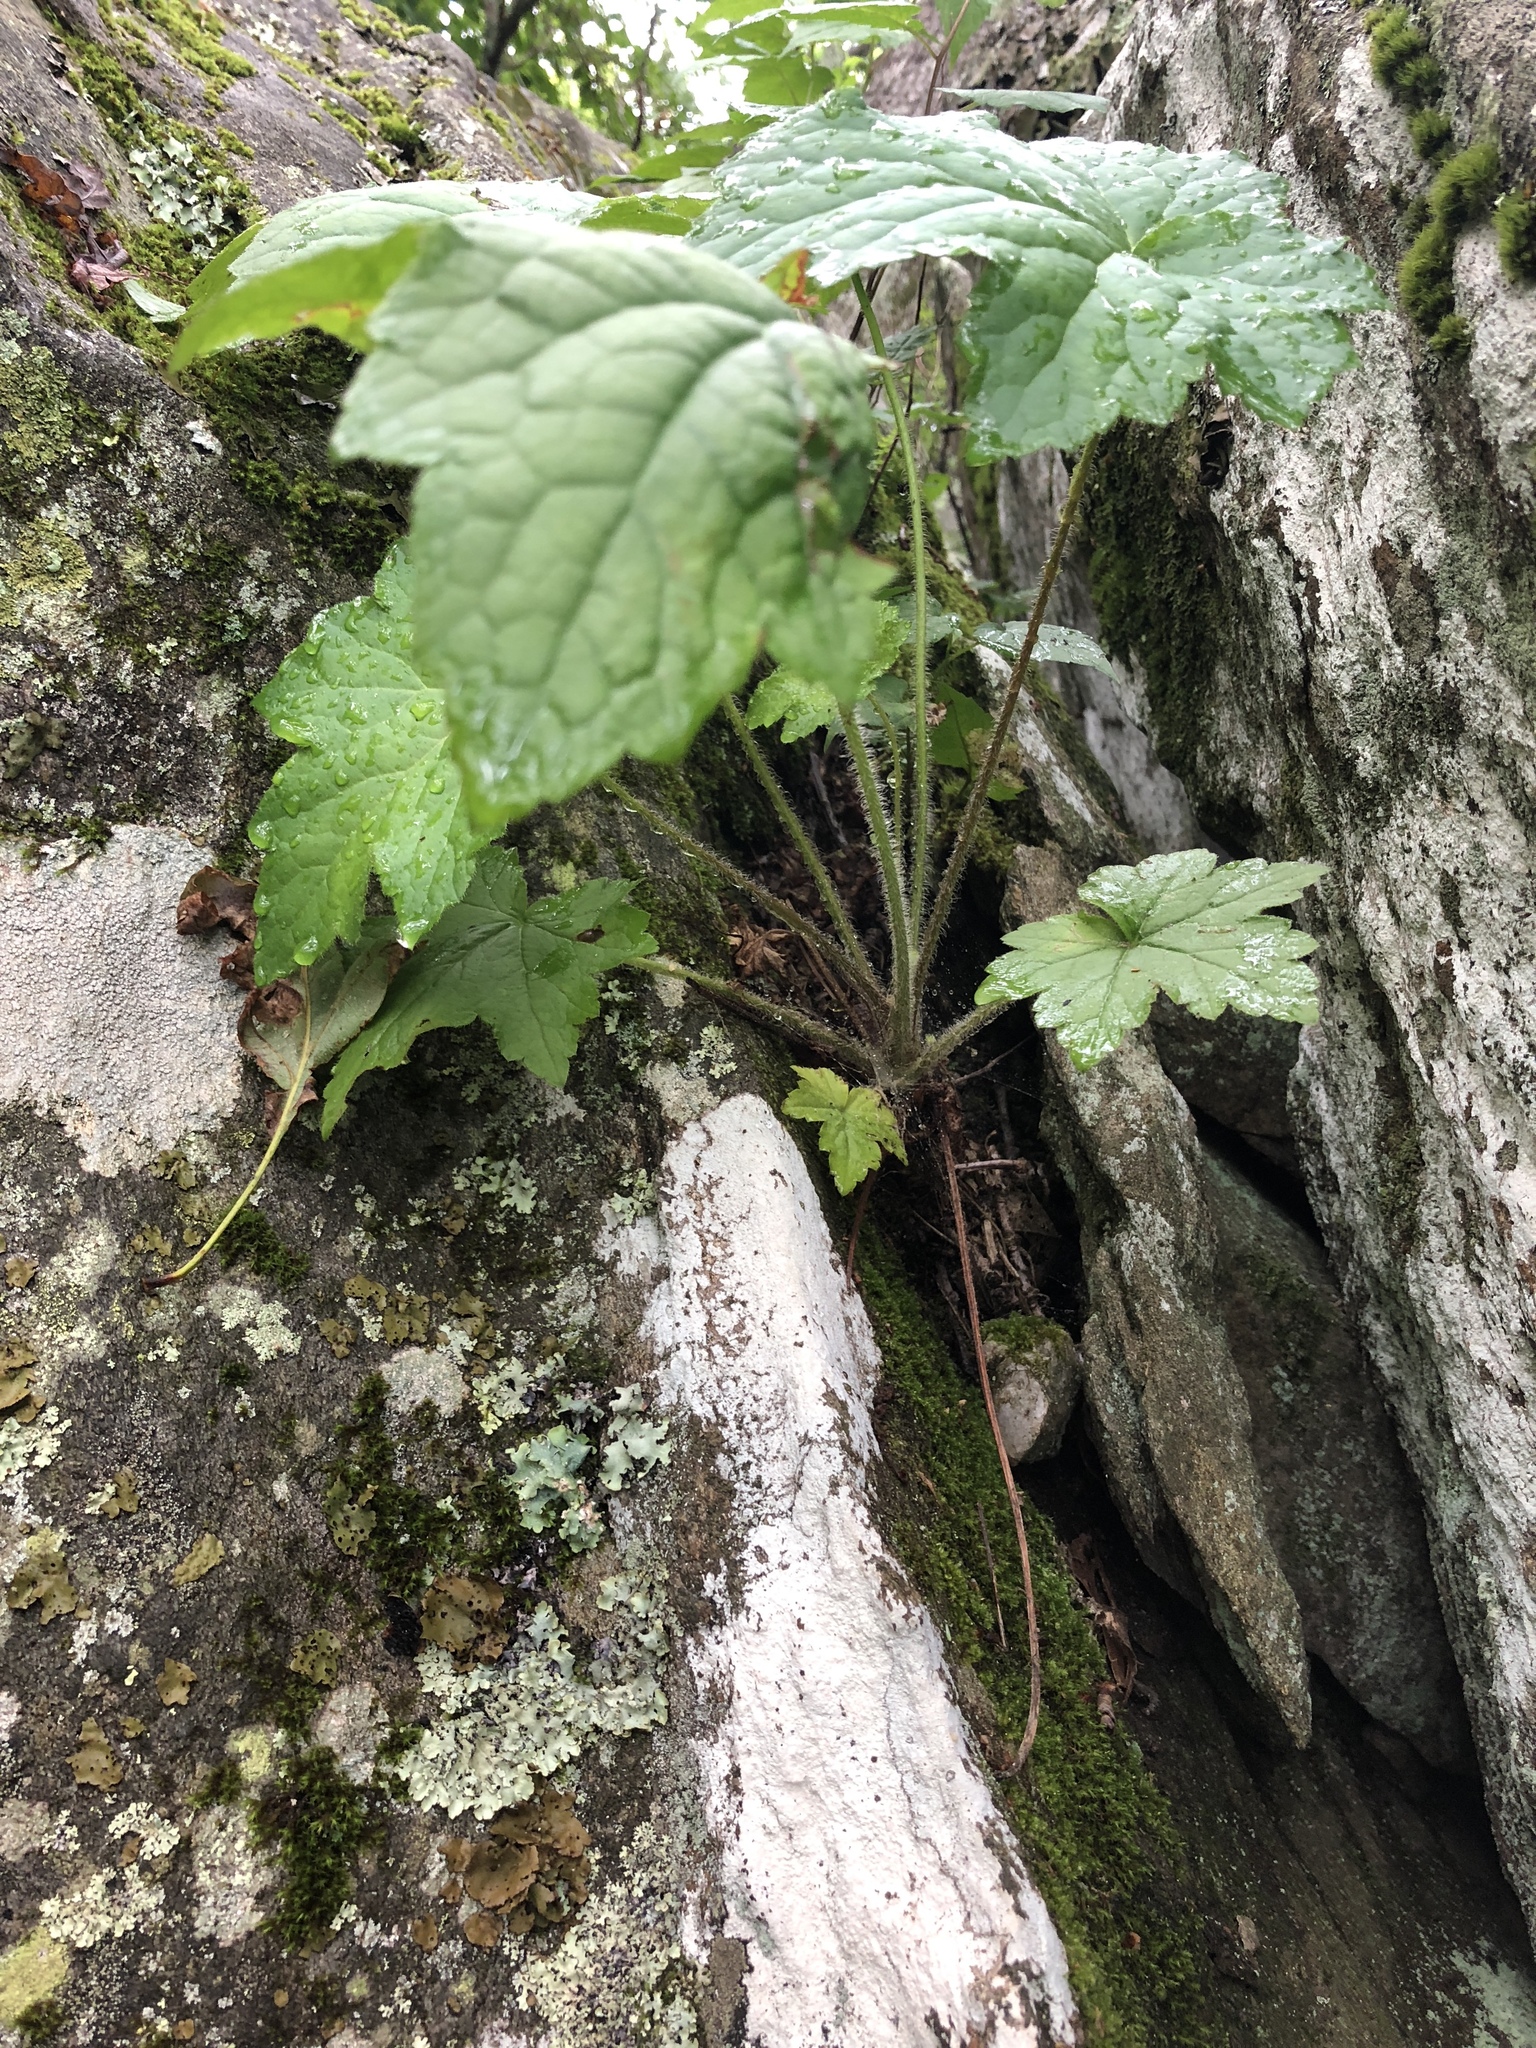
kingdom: Plantae
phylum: Tracheophyta
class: Magnoliopsida
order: Saxifragales
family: Saxifragaceae
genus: Heuchera
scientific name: Heuchera villosa
